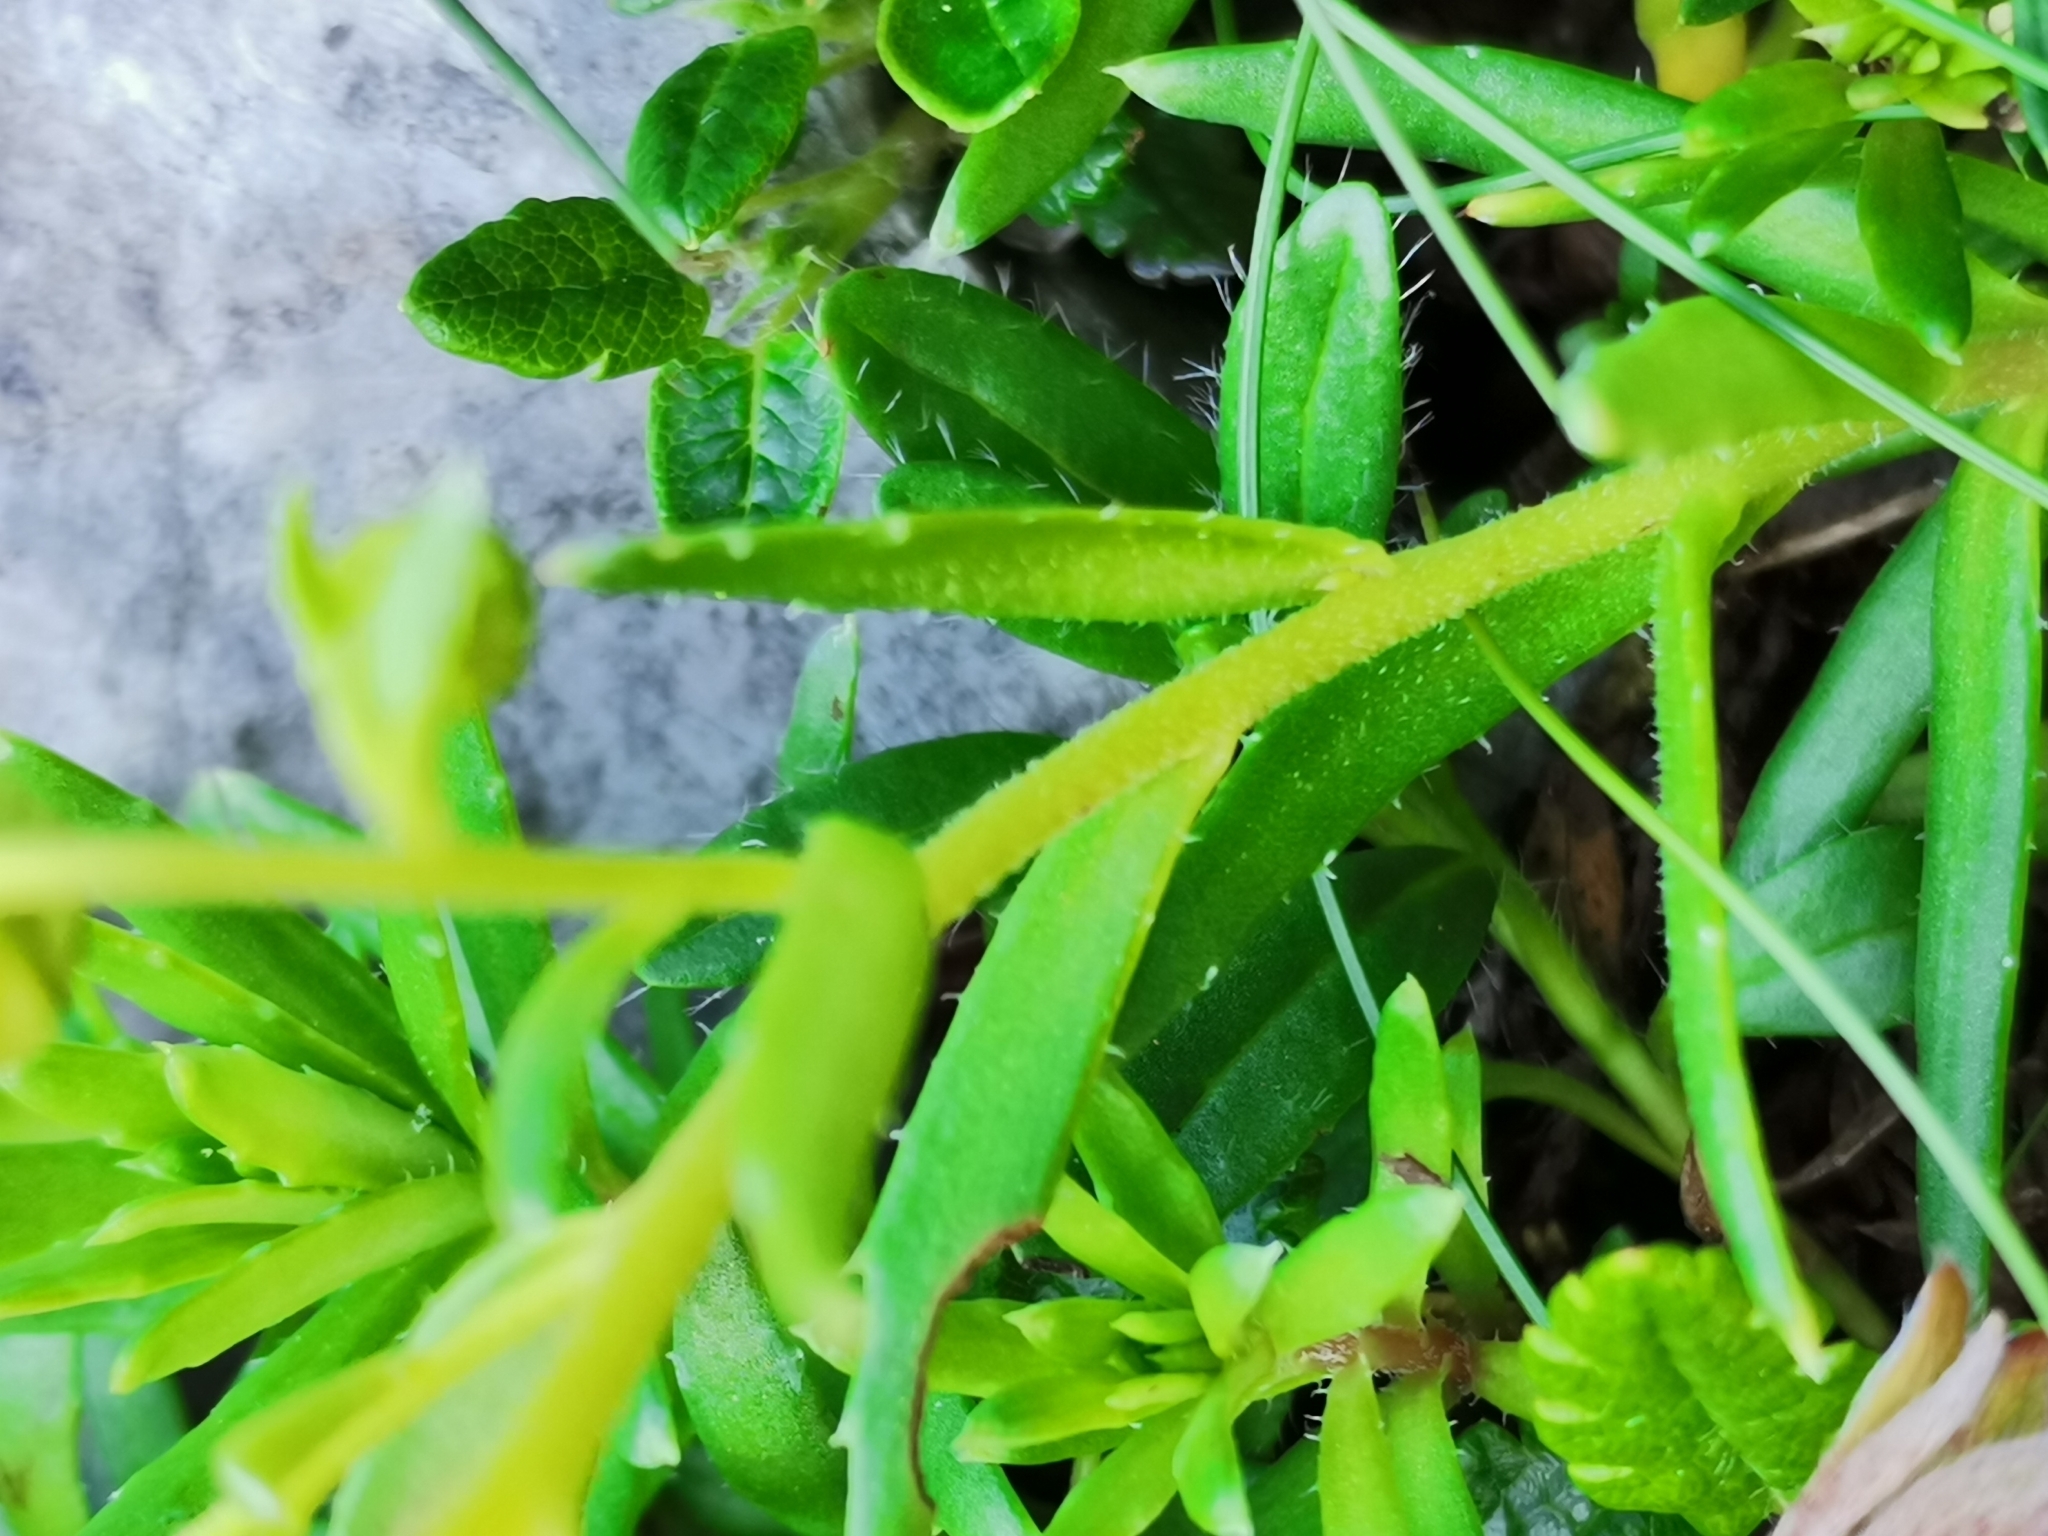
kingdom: Plantae
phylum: Tracheophyta
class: Magnoliopsida
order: Saxifragales
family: Saxifragaceae
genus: Saxifraga
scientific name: Saxifraga aizoides
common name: Yellow mountain saxifrage
